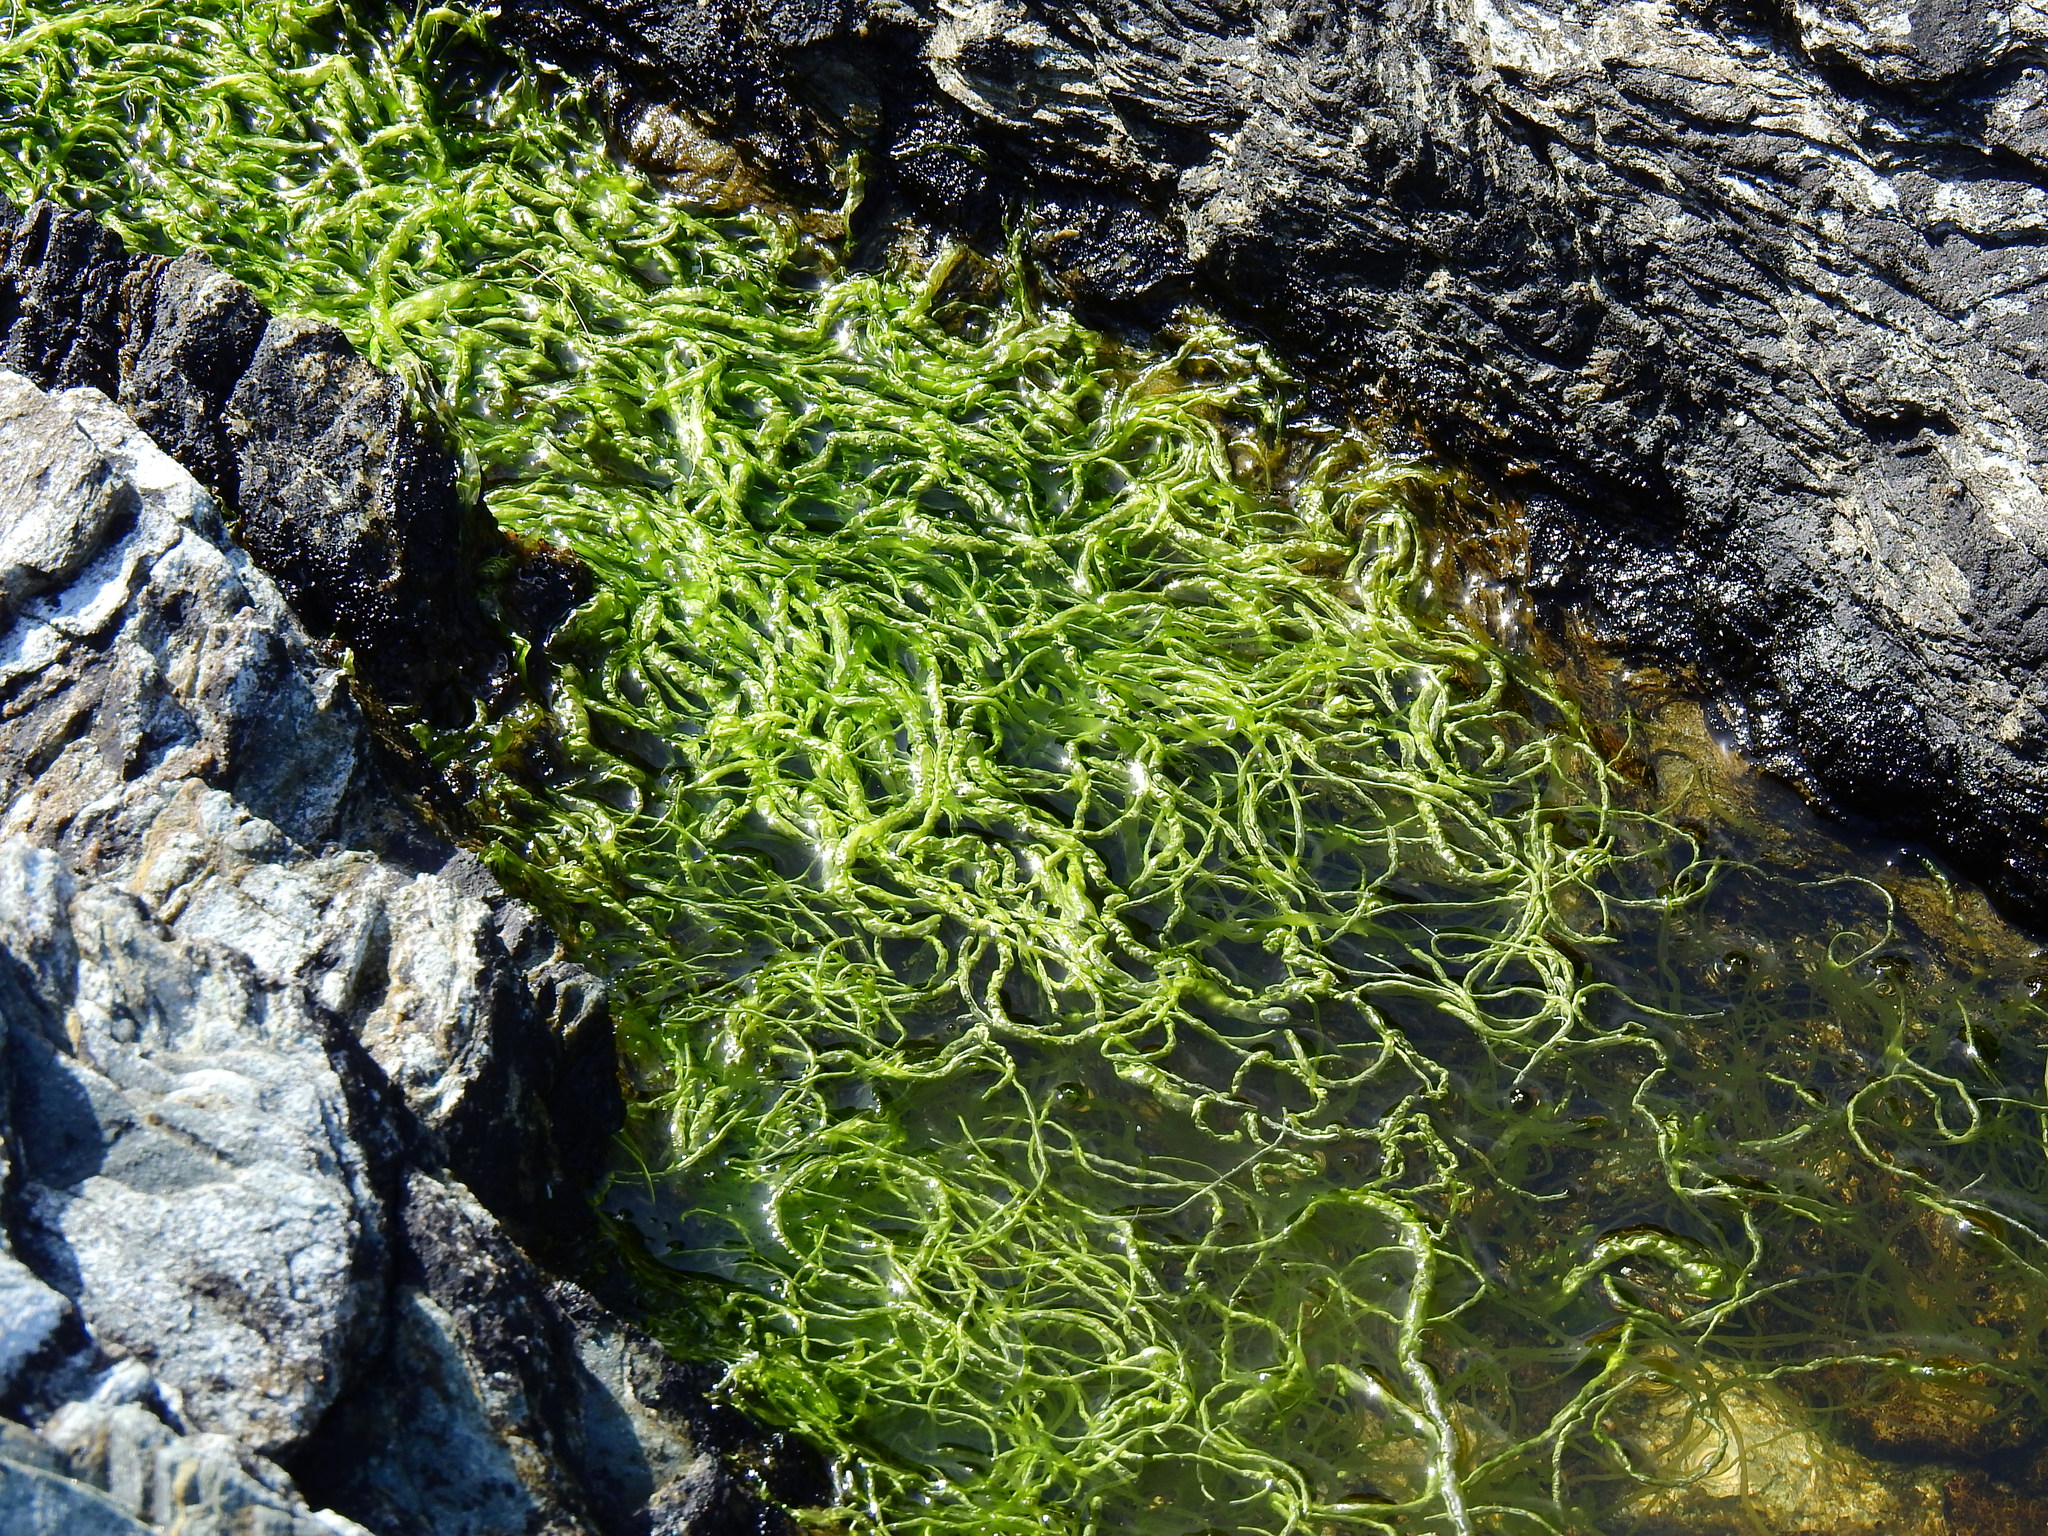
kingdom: Plantae
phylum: Chlorophyta
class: Ulvophyceae
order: Ulvales
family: Ulvaceae
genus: Ulva
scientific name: Ulva intestinalis
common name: Gut weed
